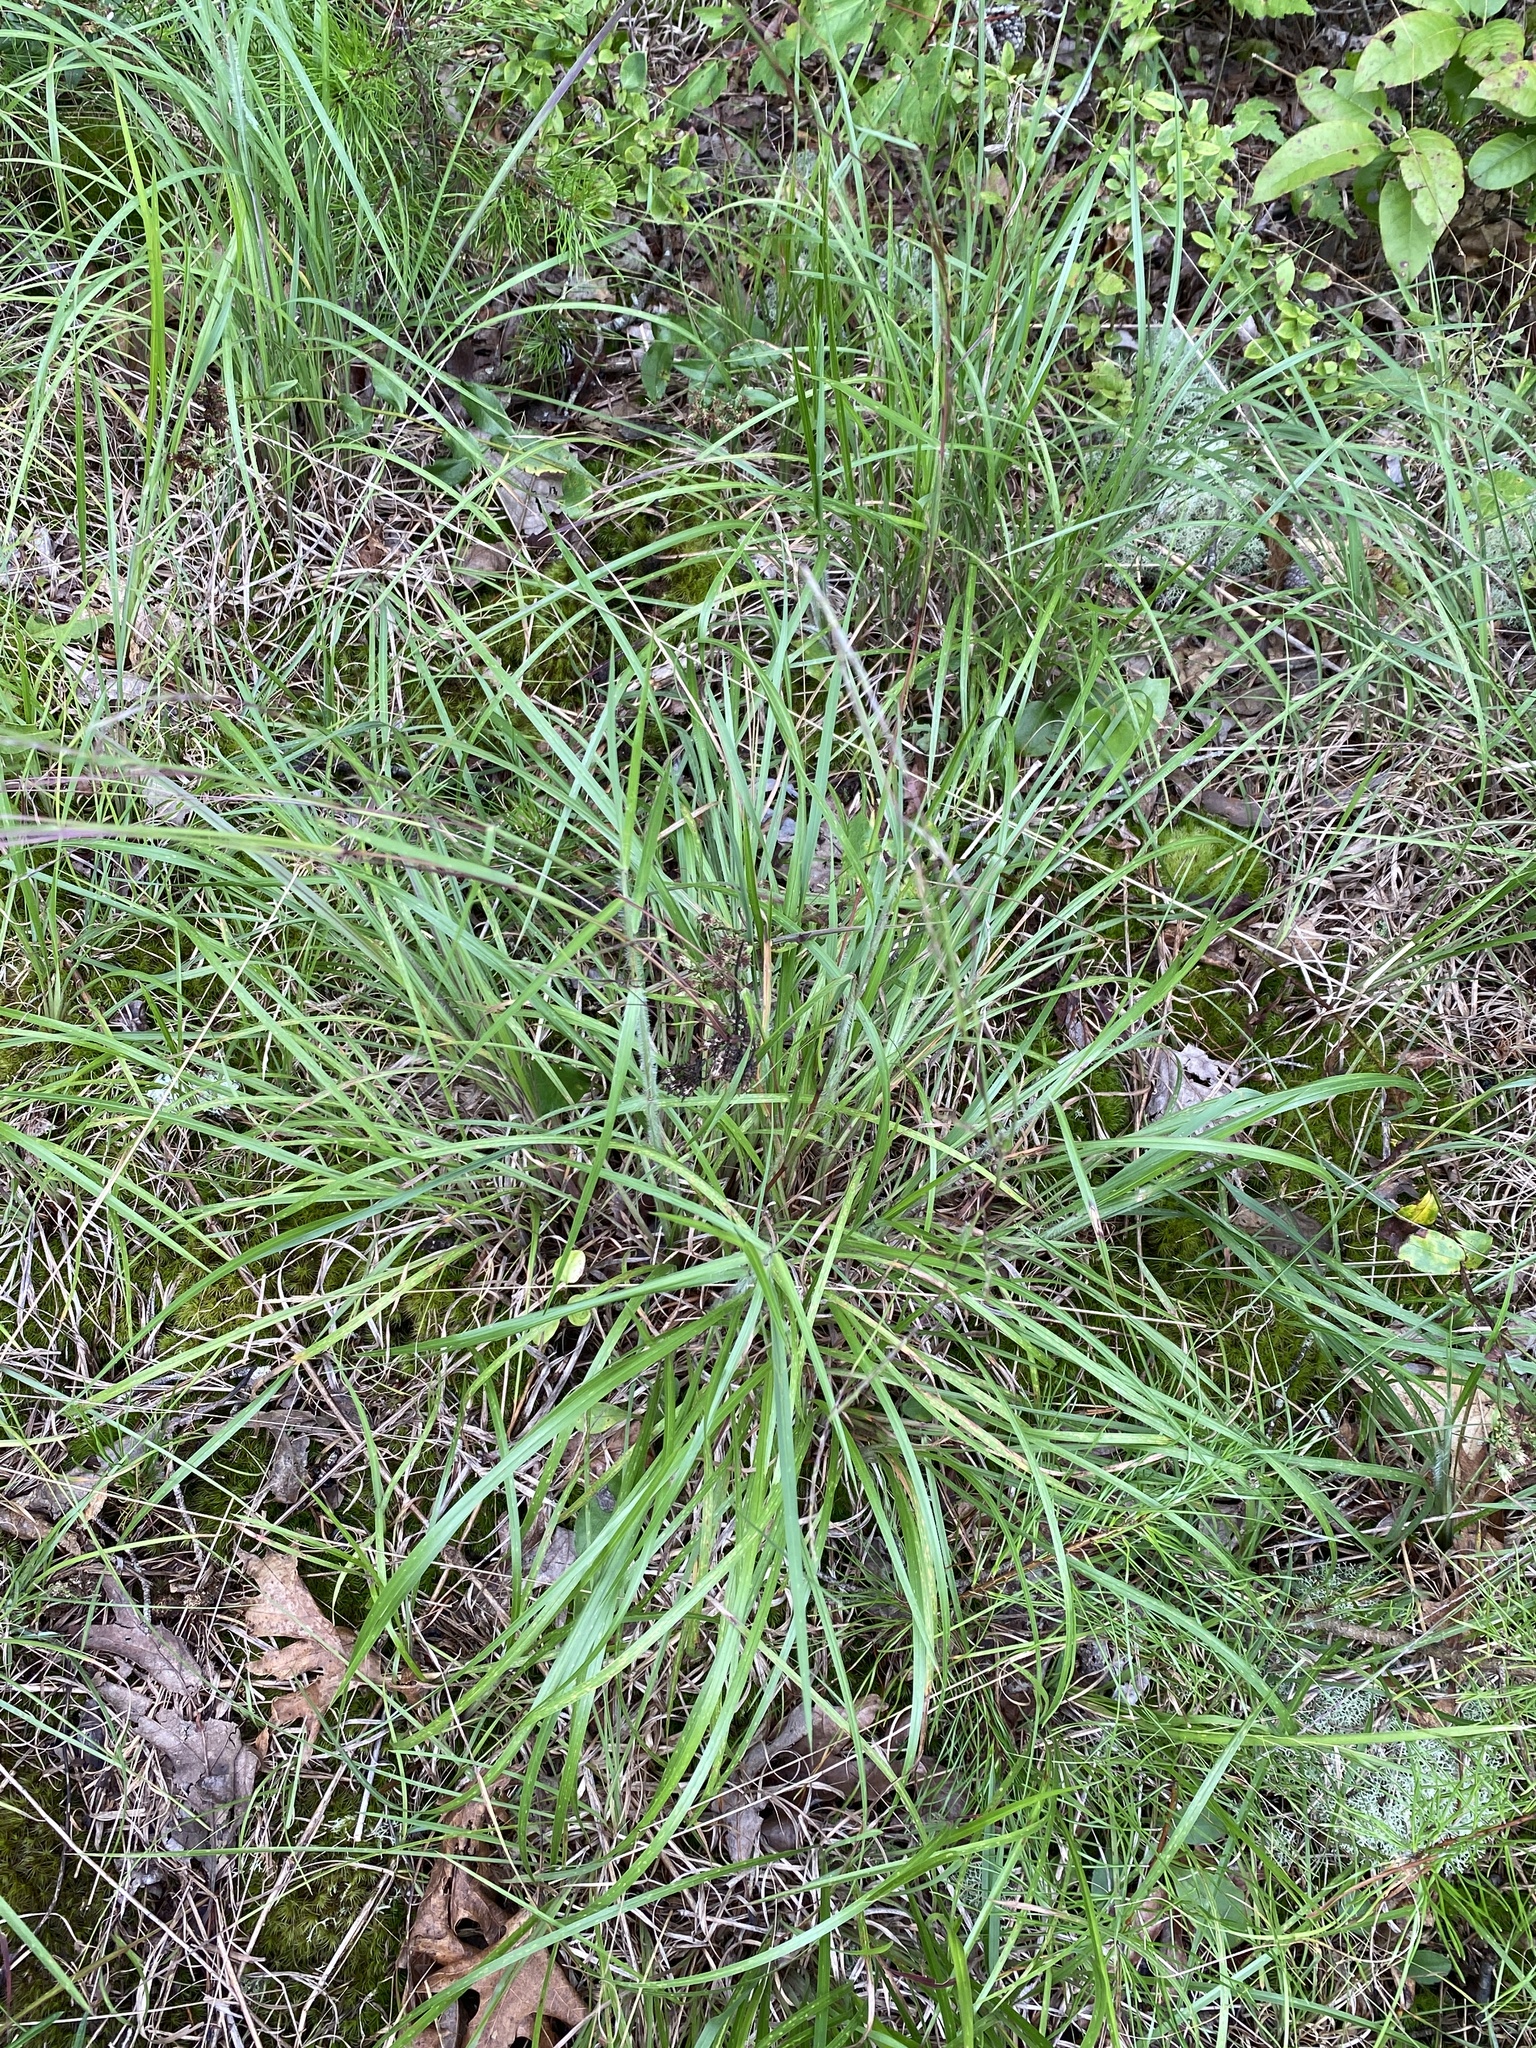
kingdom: Plantae
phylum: Tracheophyta
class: Liliopsida
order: Poales
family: Poaceae
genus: Schizachyrium
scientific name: Schizachyrium scoparium
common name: Little bluestem
